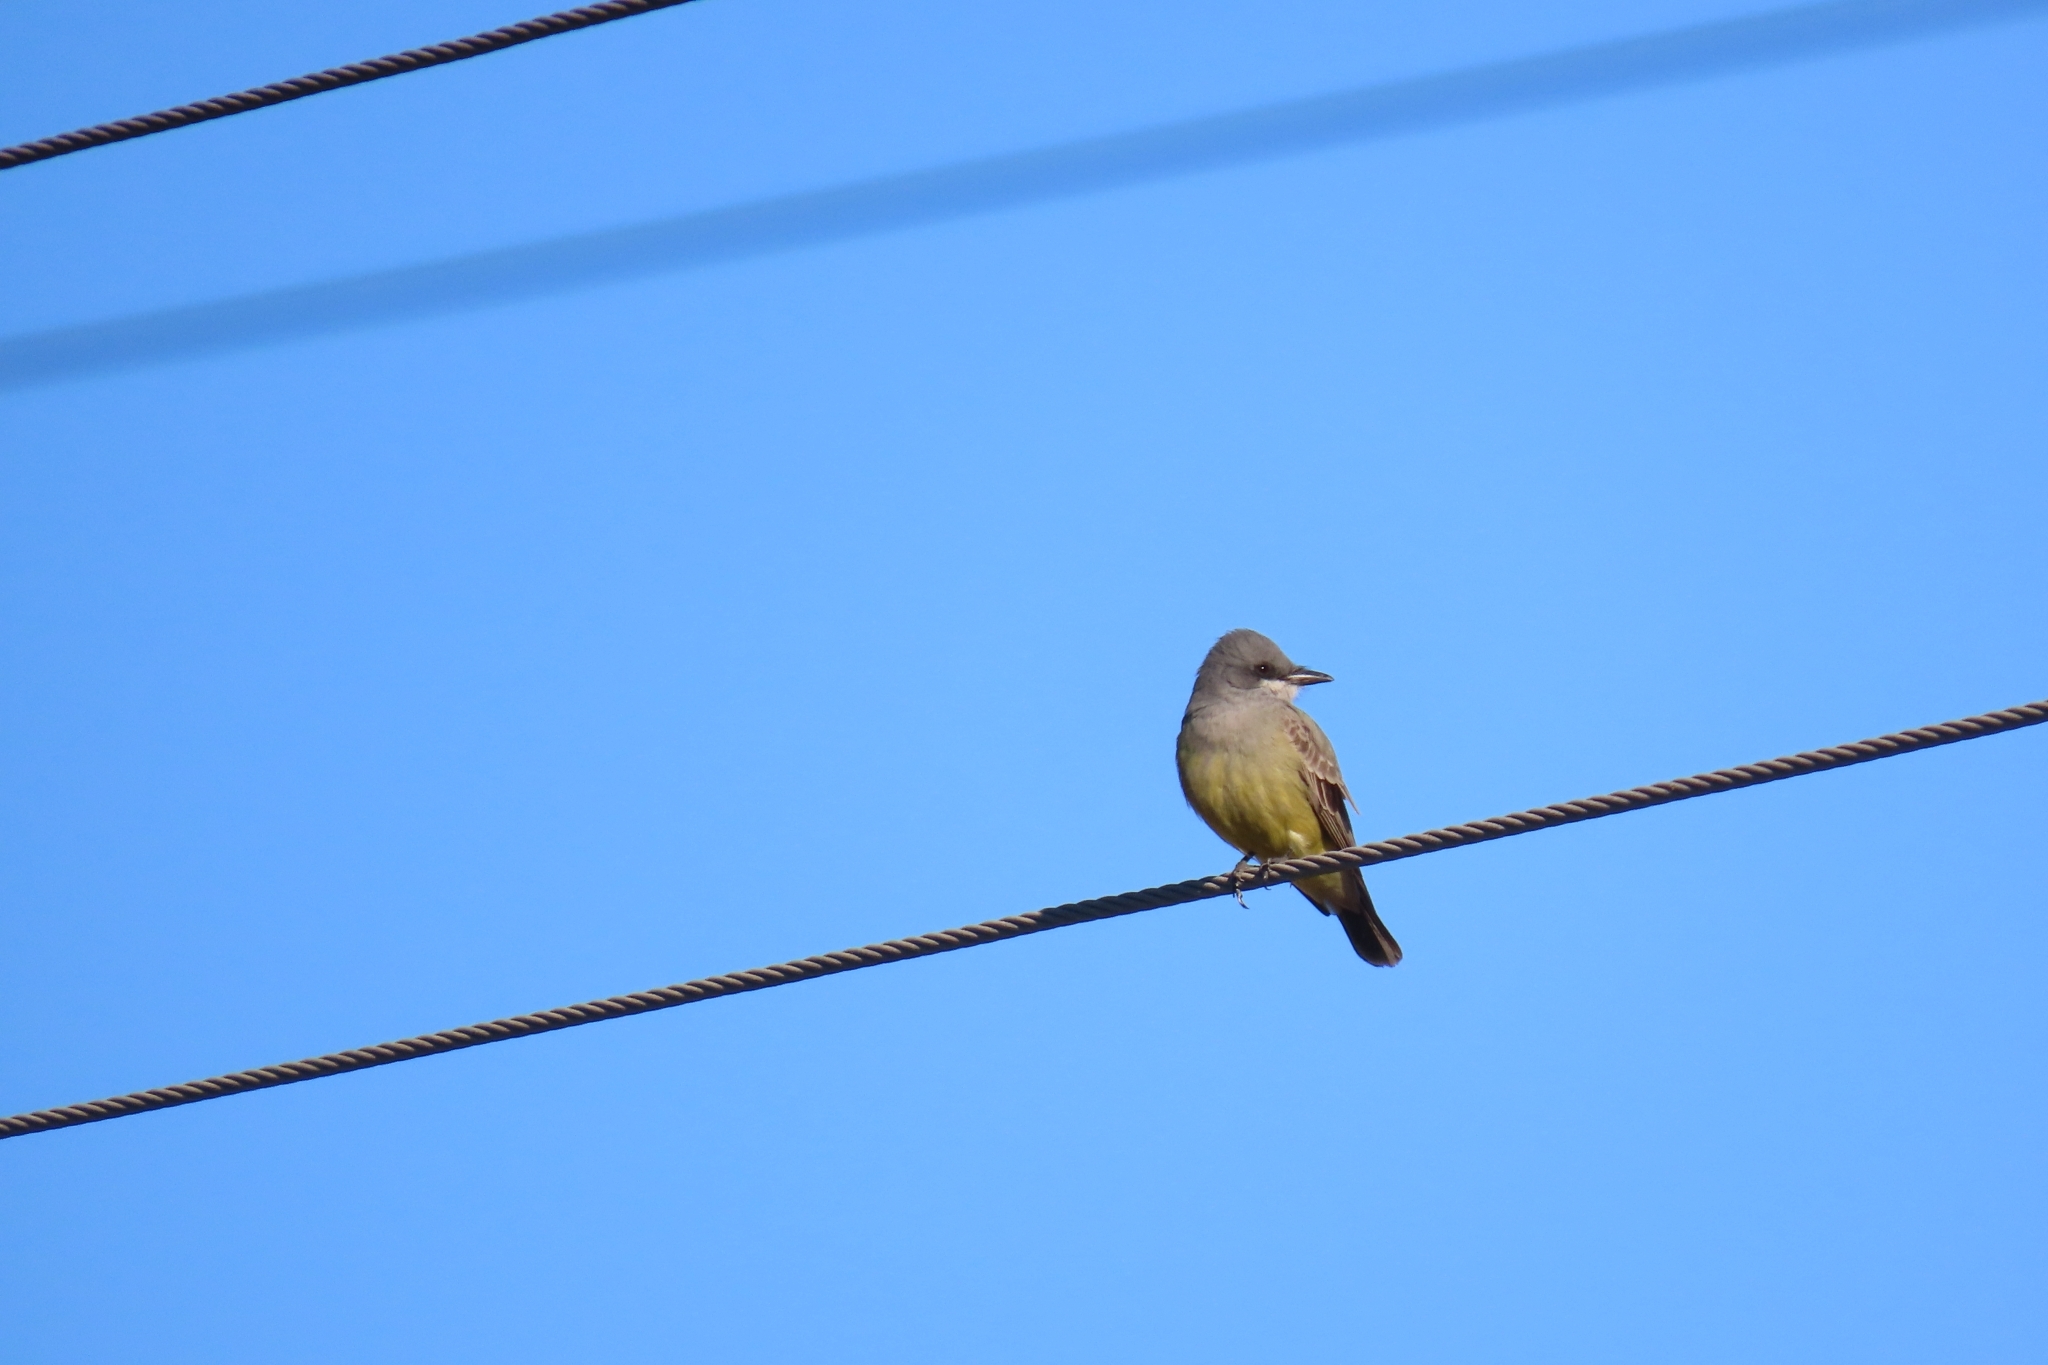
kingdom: Animalia
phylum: Chordata
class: Aves
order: Passeriformes
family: Tyrannidae
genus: Tyrannus
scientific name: Tyrannus vociferans
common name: Cassin's kingbird
